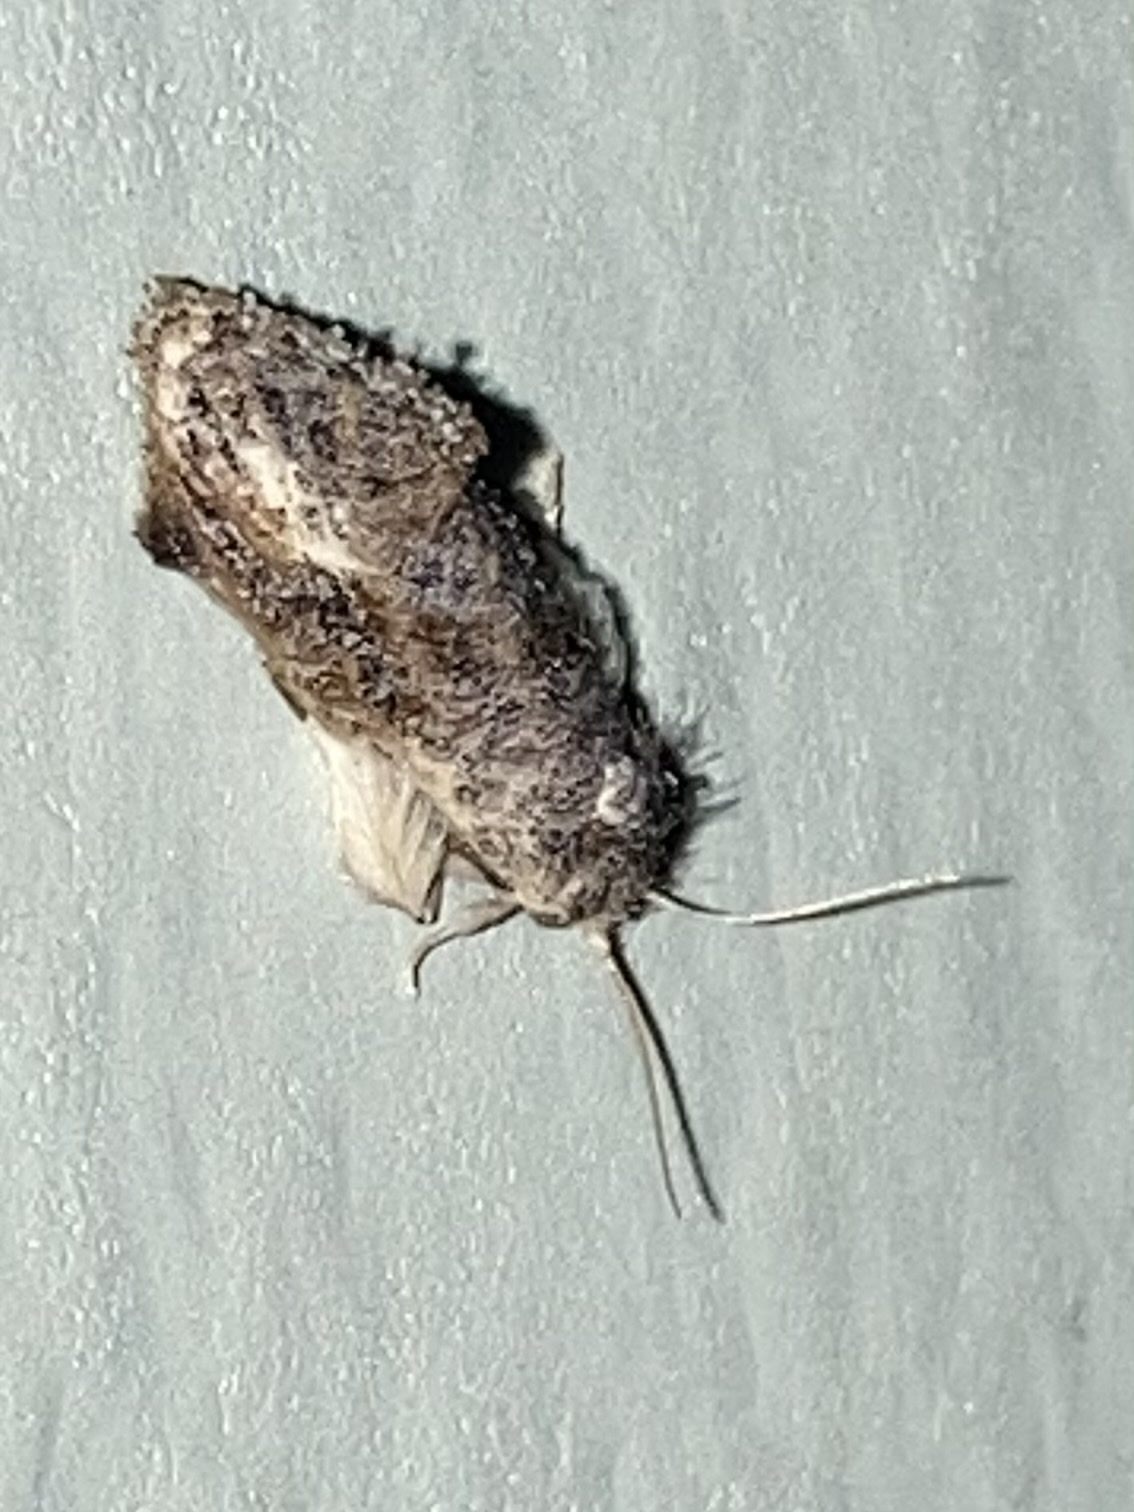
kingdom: Animalia
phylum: Arthropoda
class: Insecta
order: Lepidoptera
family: Tineidae
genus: Acrolophus
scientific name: Acrolophus mycetophagus
